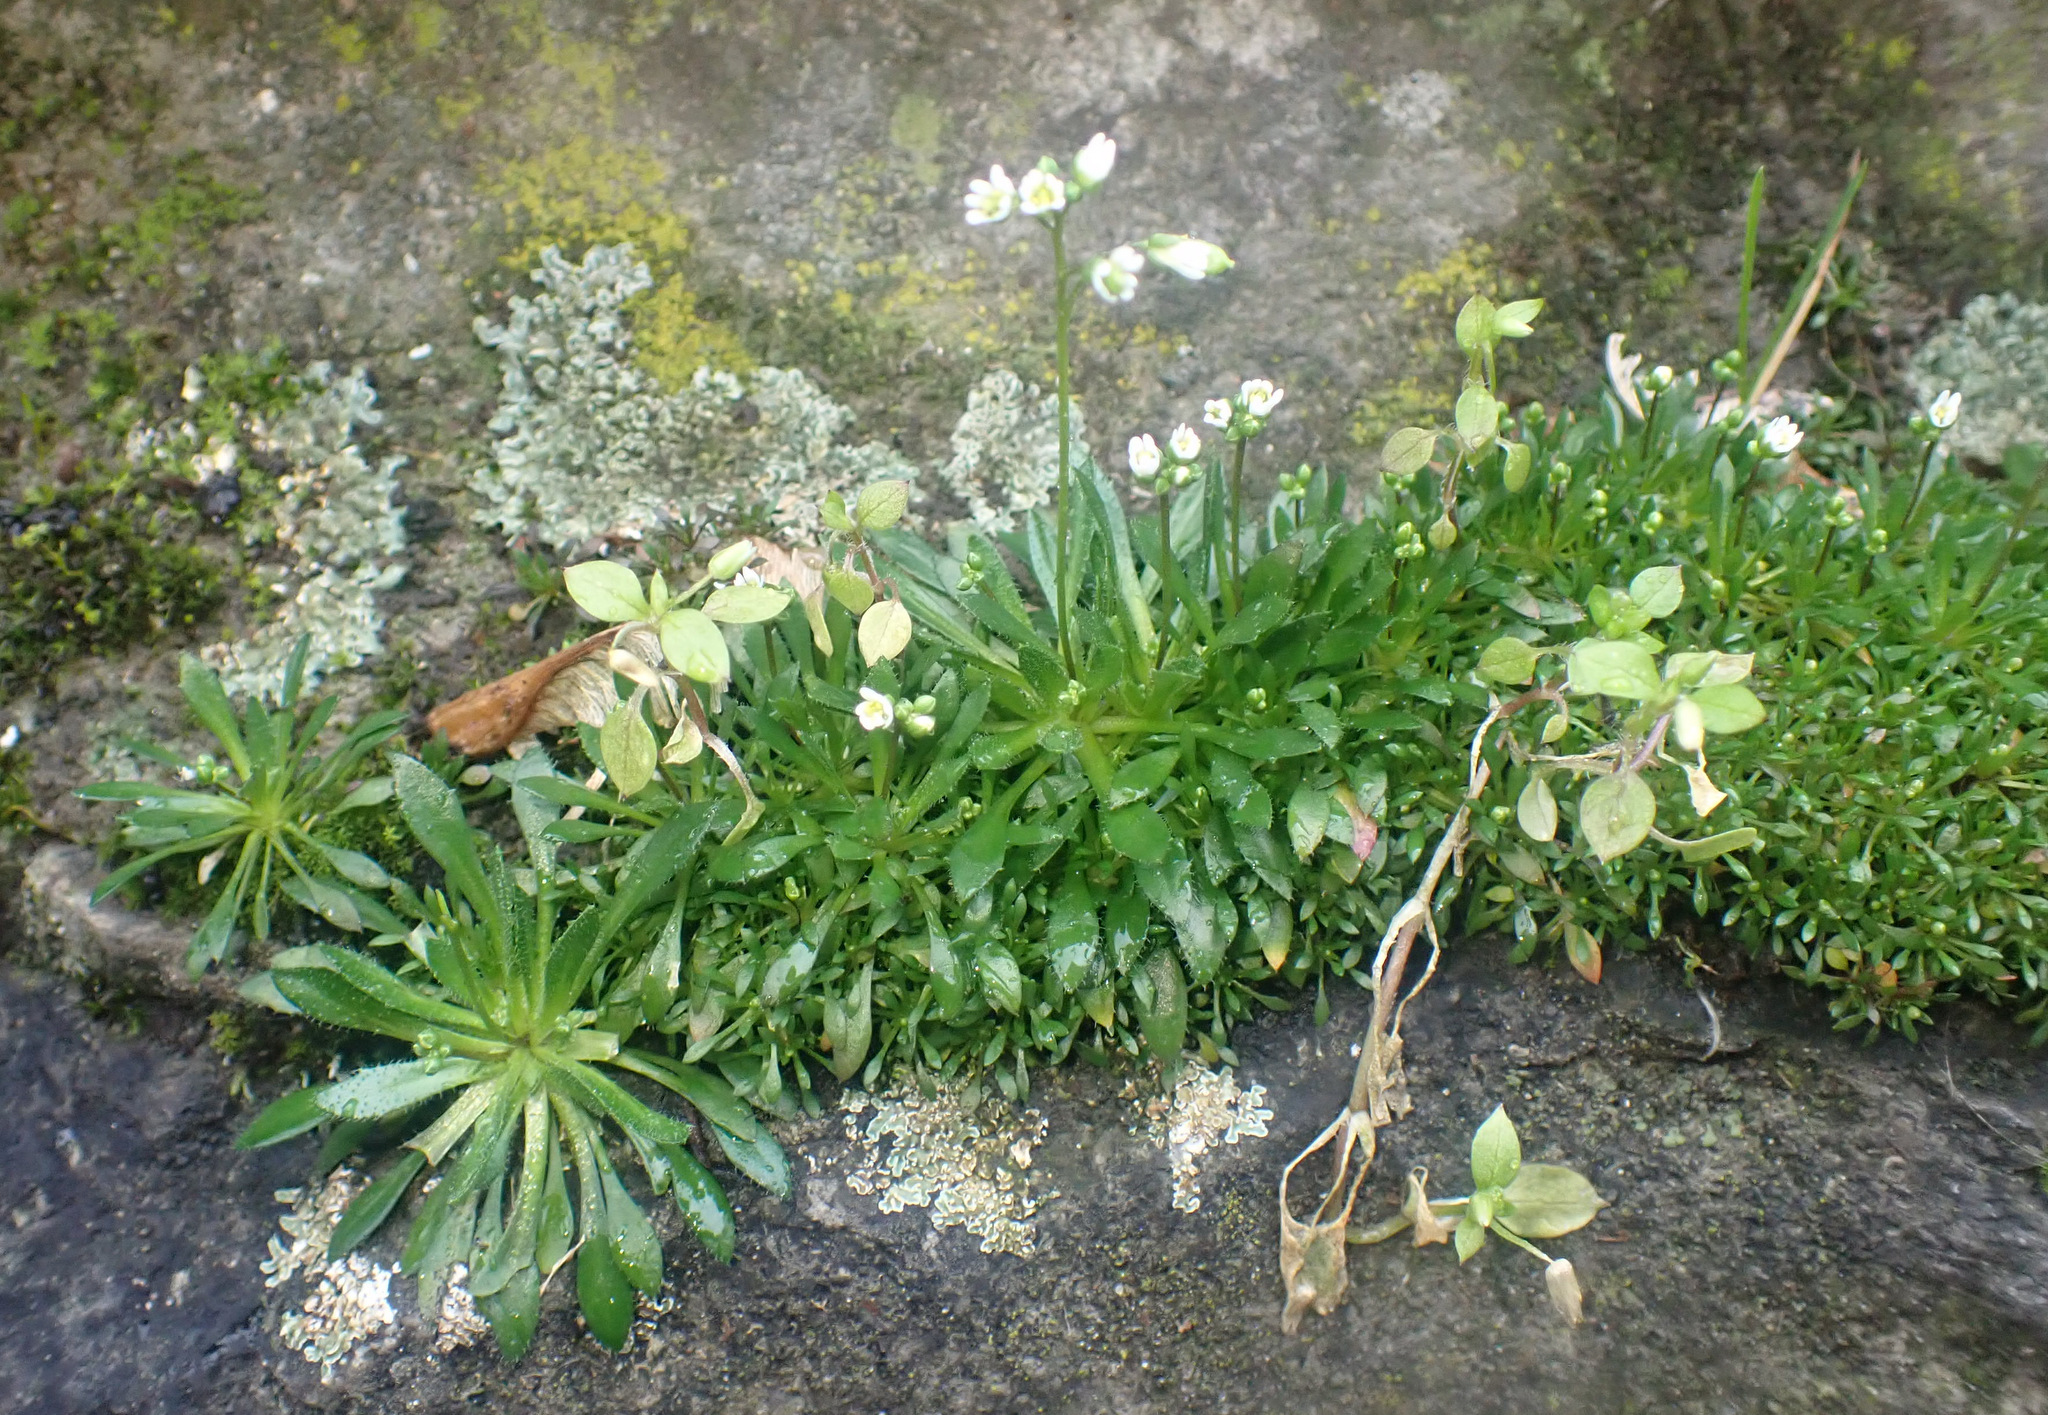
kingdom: Plantae
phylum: Tracheophyta
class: Magnoliopsida
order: Brassicales
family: Brassicaceae
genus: Draba
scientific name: Draba verna
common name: Spring draba
